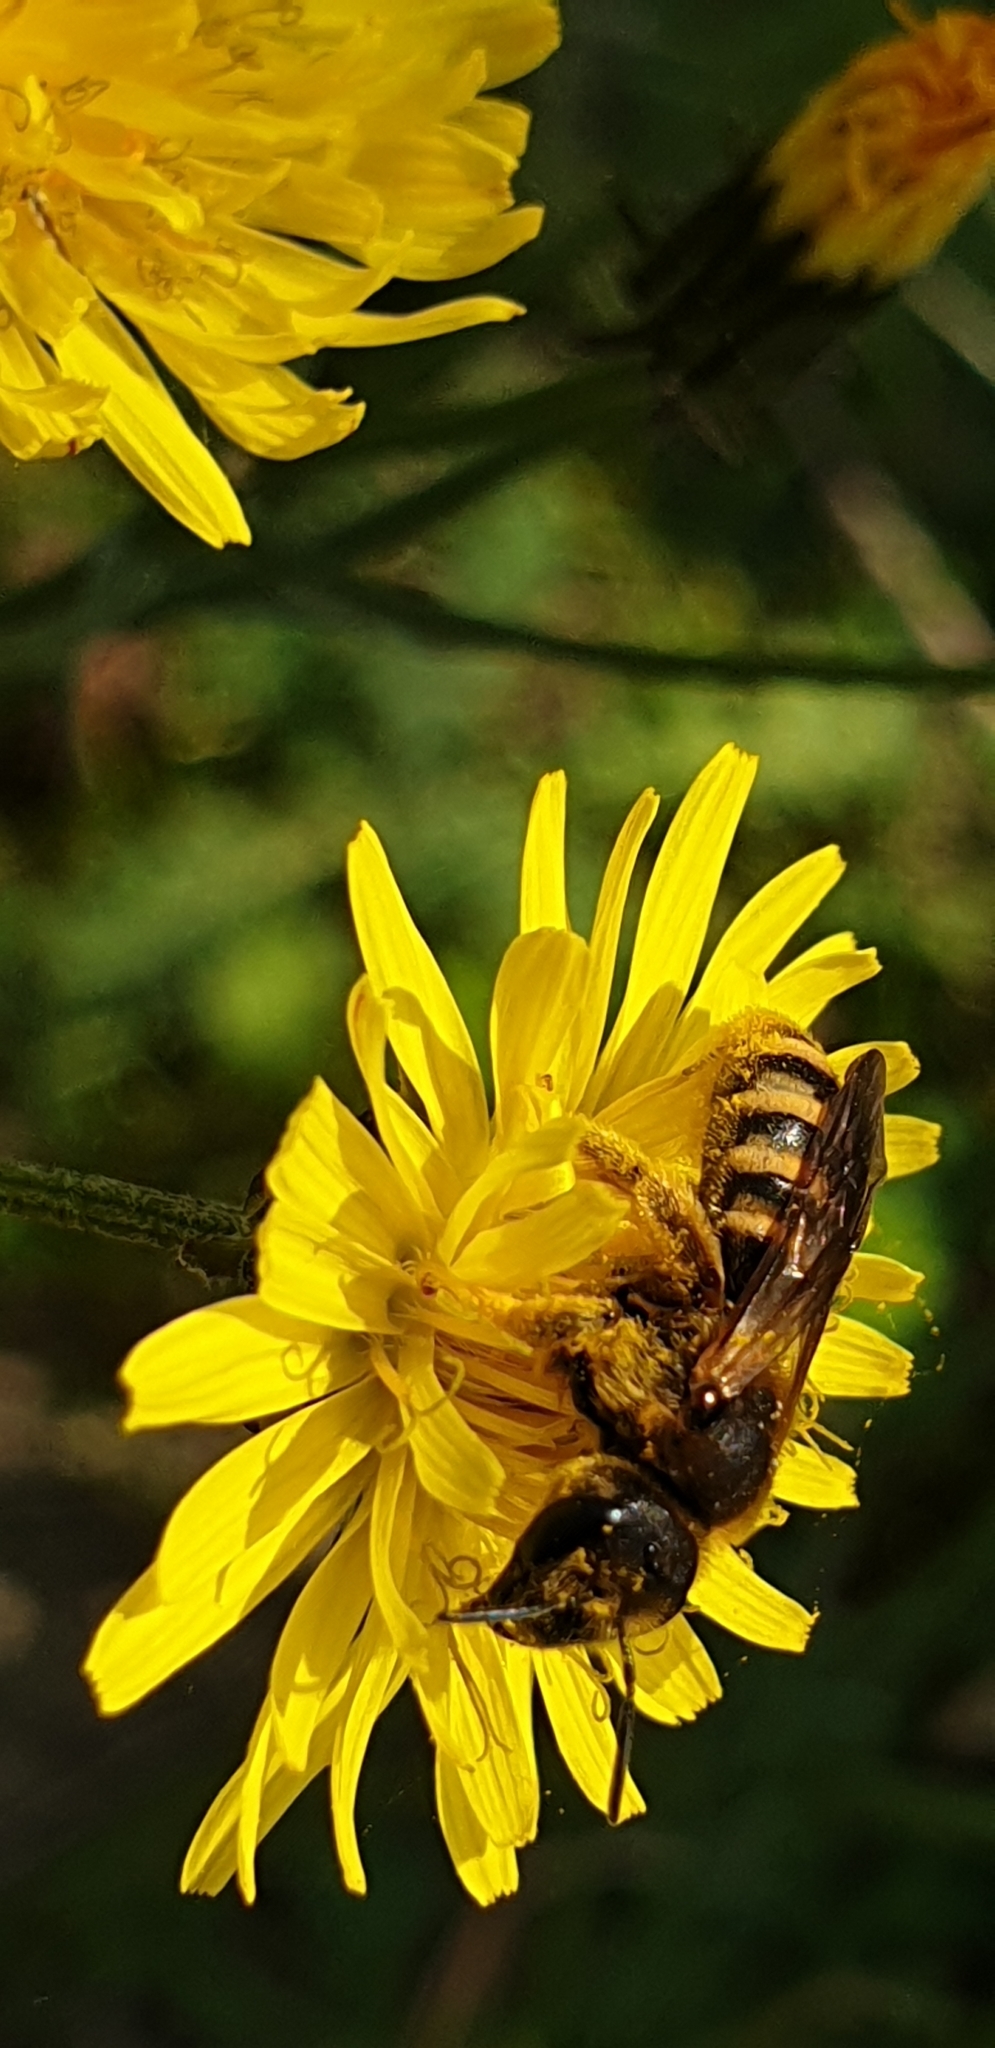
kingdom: Animalia
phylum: Arthropoda
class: Insecta
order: Hymenoptera
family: Halictidae
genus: Halictus
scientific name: Halictus scabiosae
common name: Great banded furrow bee
